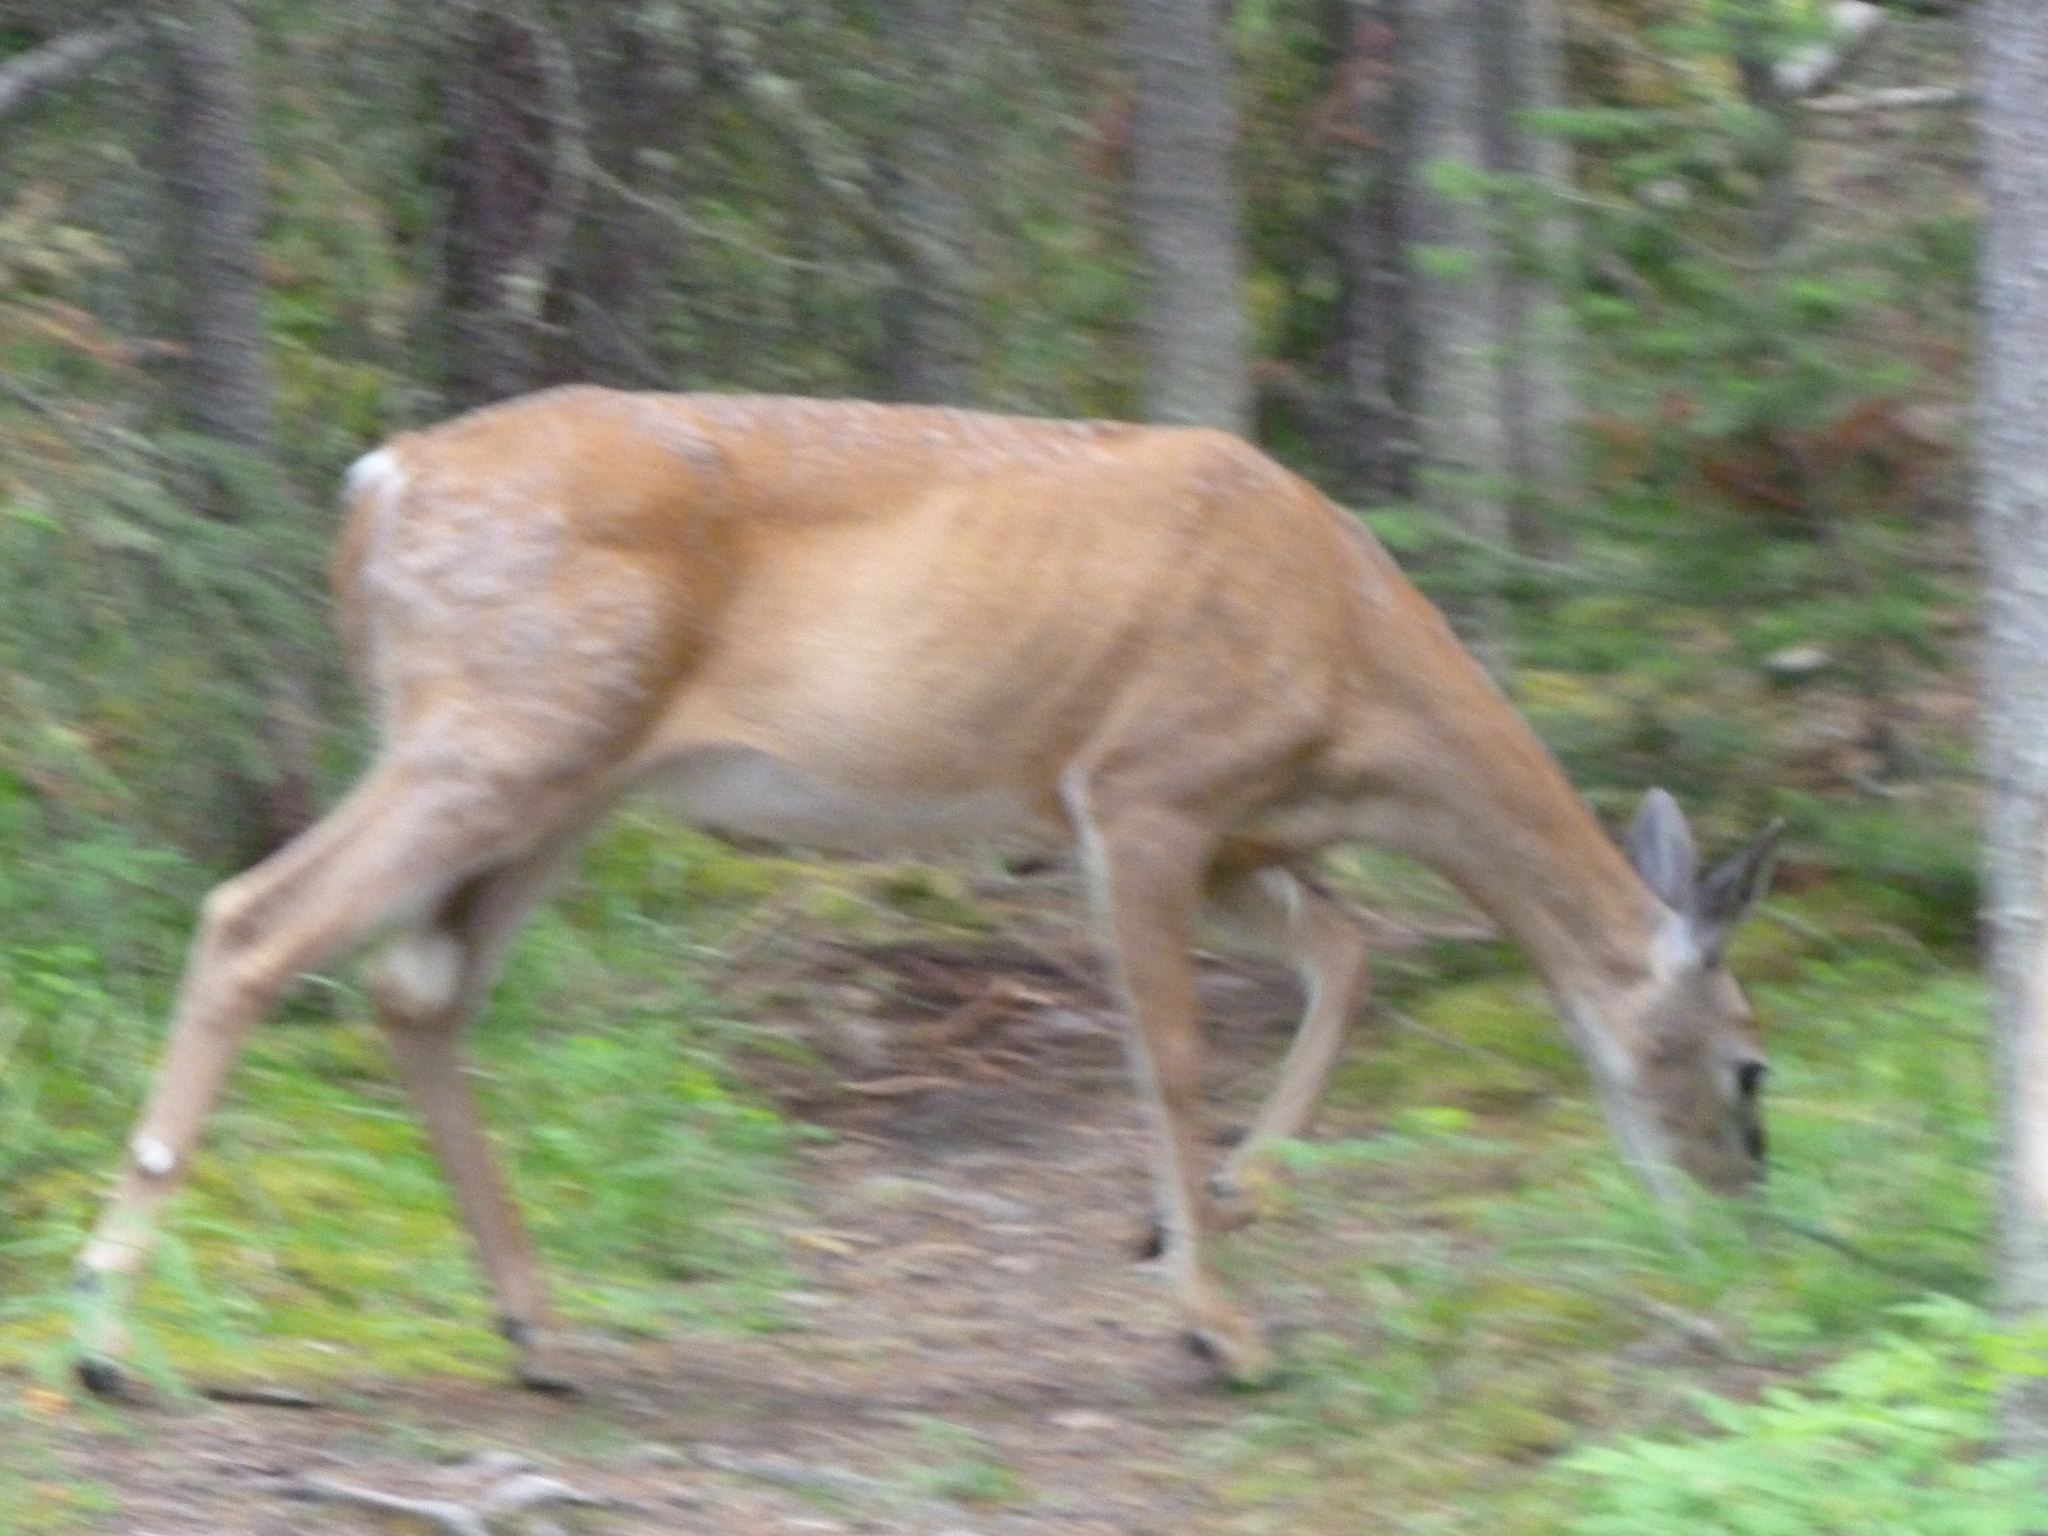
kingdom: Animalia
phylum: Chordata
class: Mammalia
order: Artiodactyla
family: Cervidae
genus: Odocoileus
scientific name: Odocoileus virginianus
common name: White-tailed deer
